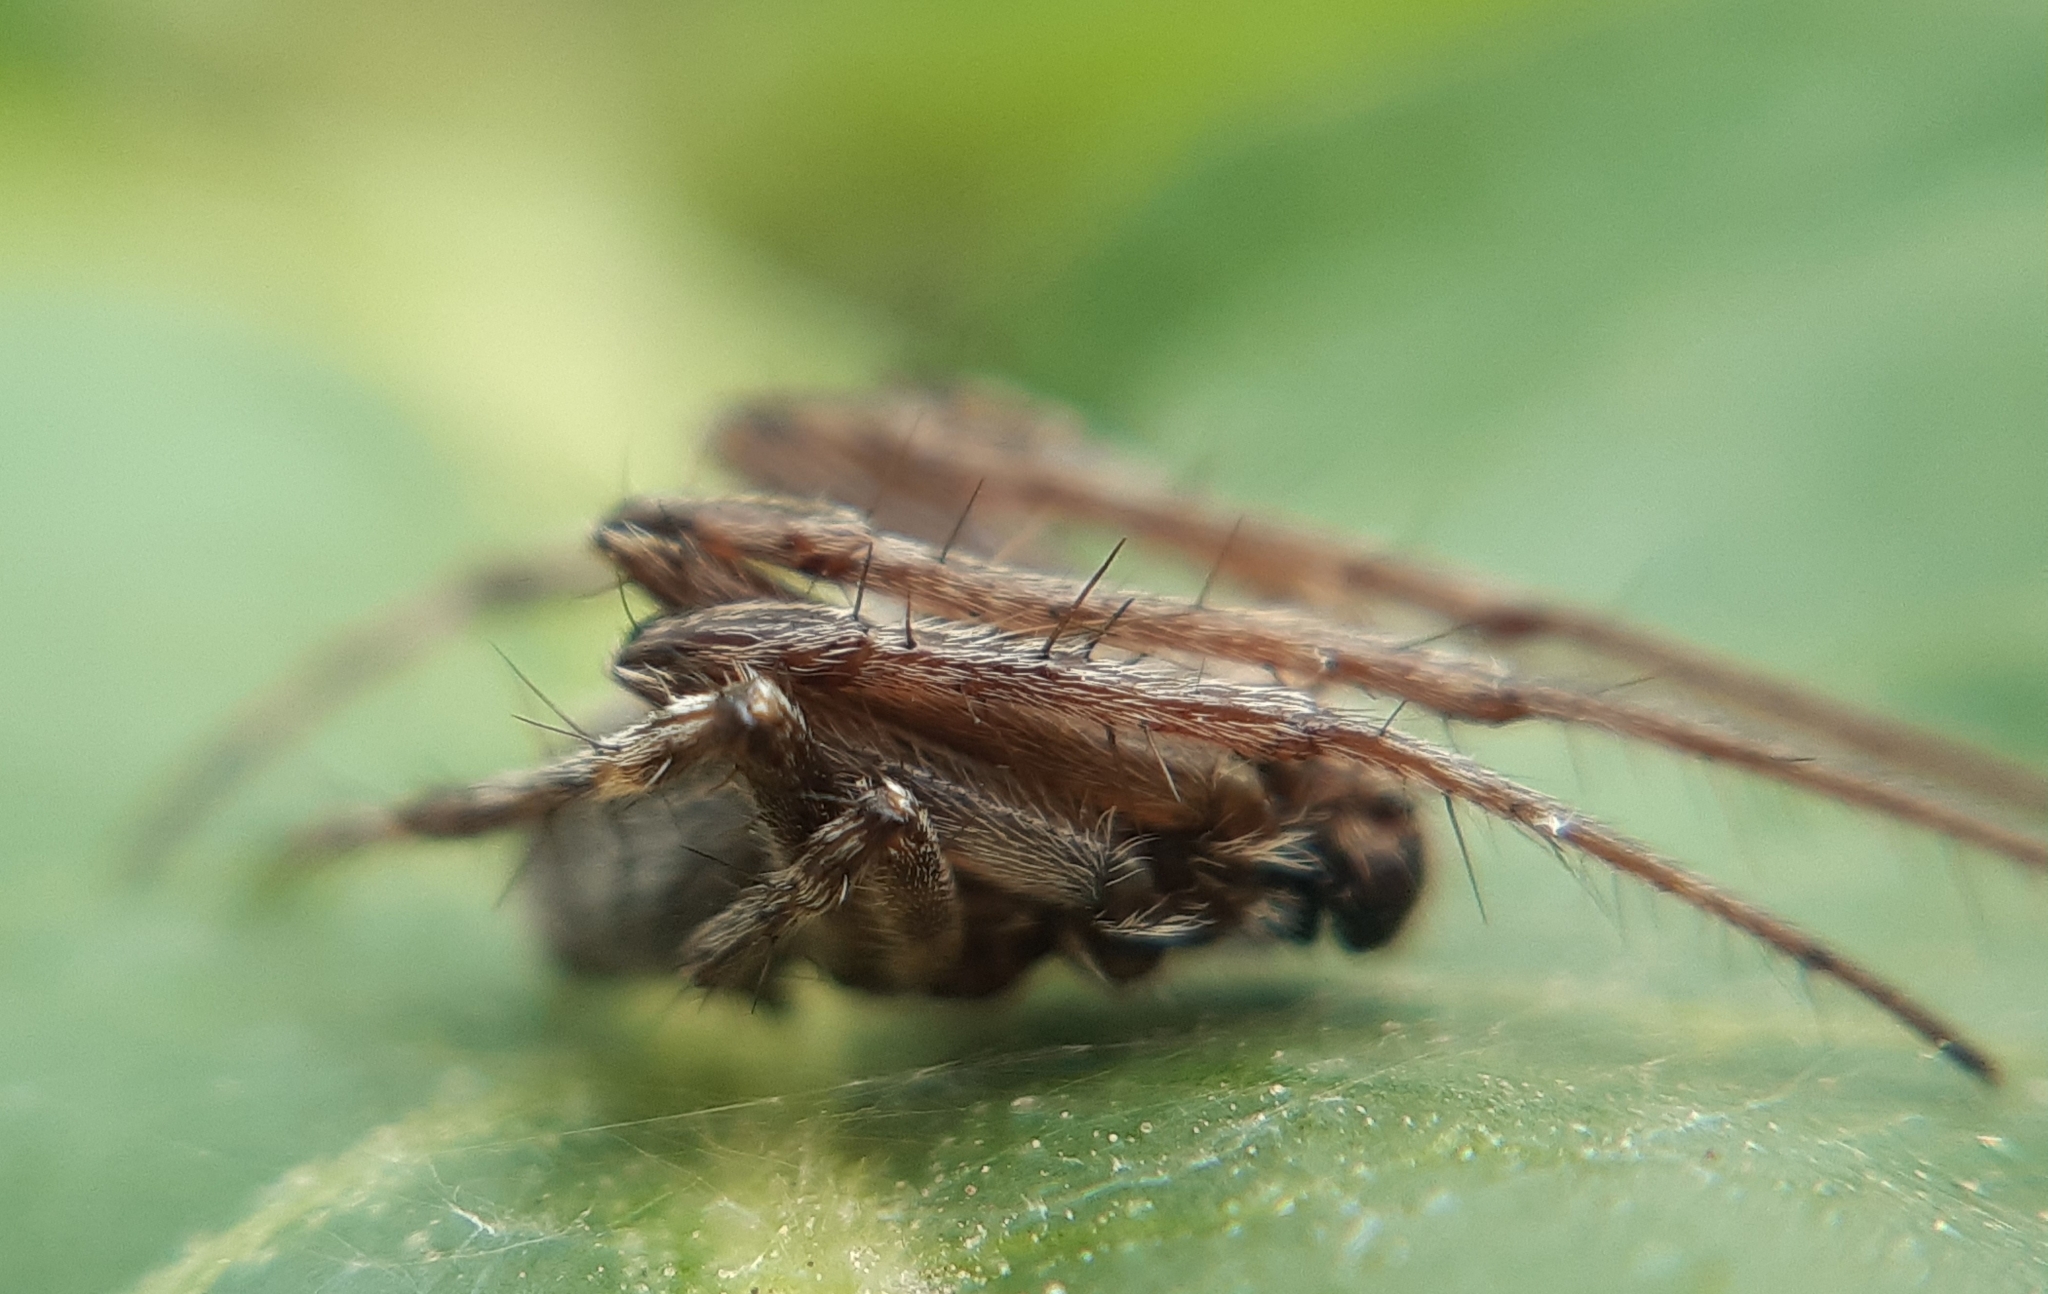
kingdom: Animalia
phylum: Arthropoda
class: Arachnida
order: Araneae
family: Araneidae
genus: Agalenatea
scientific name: Agalenatea redii
